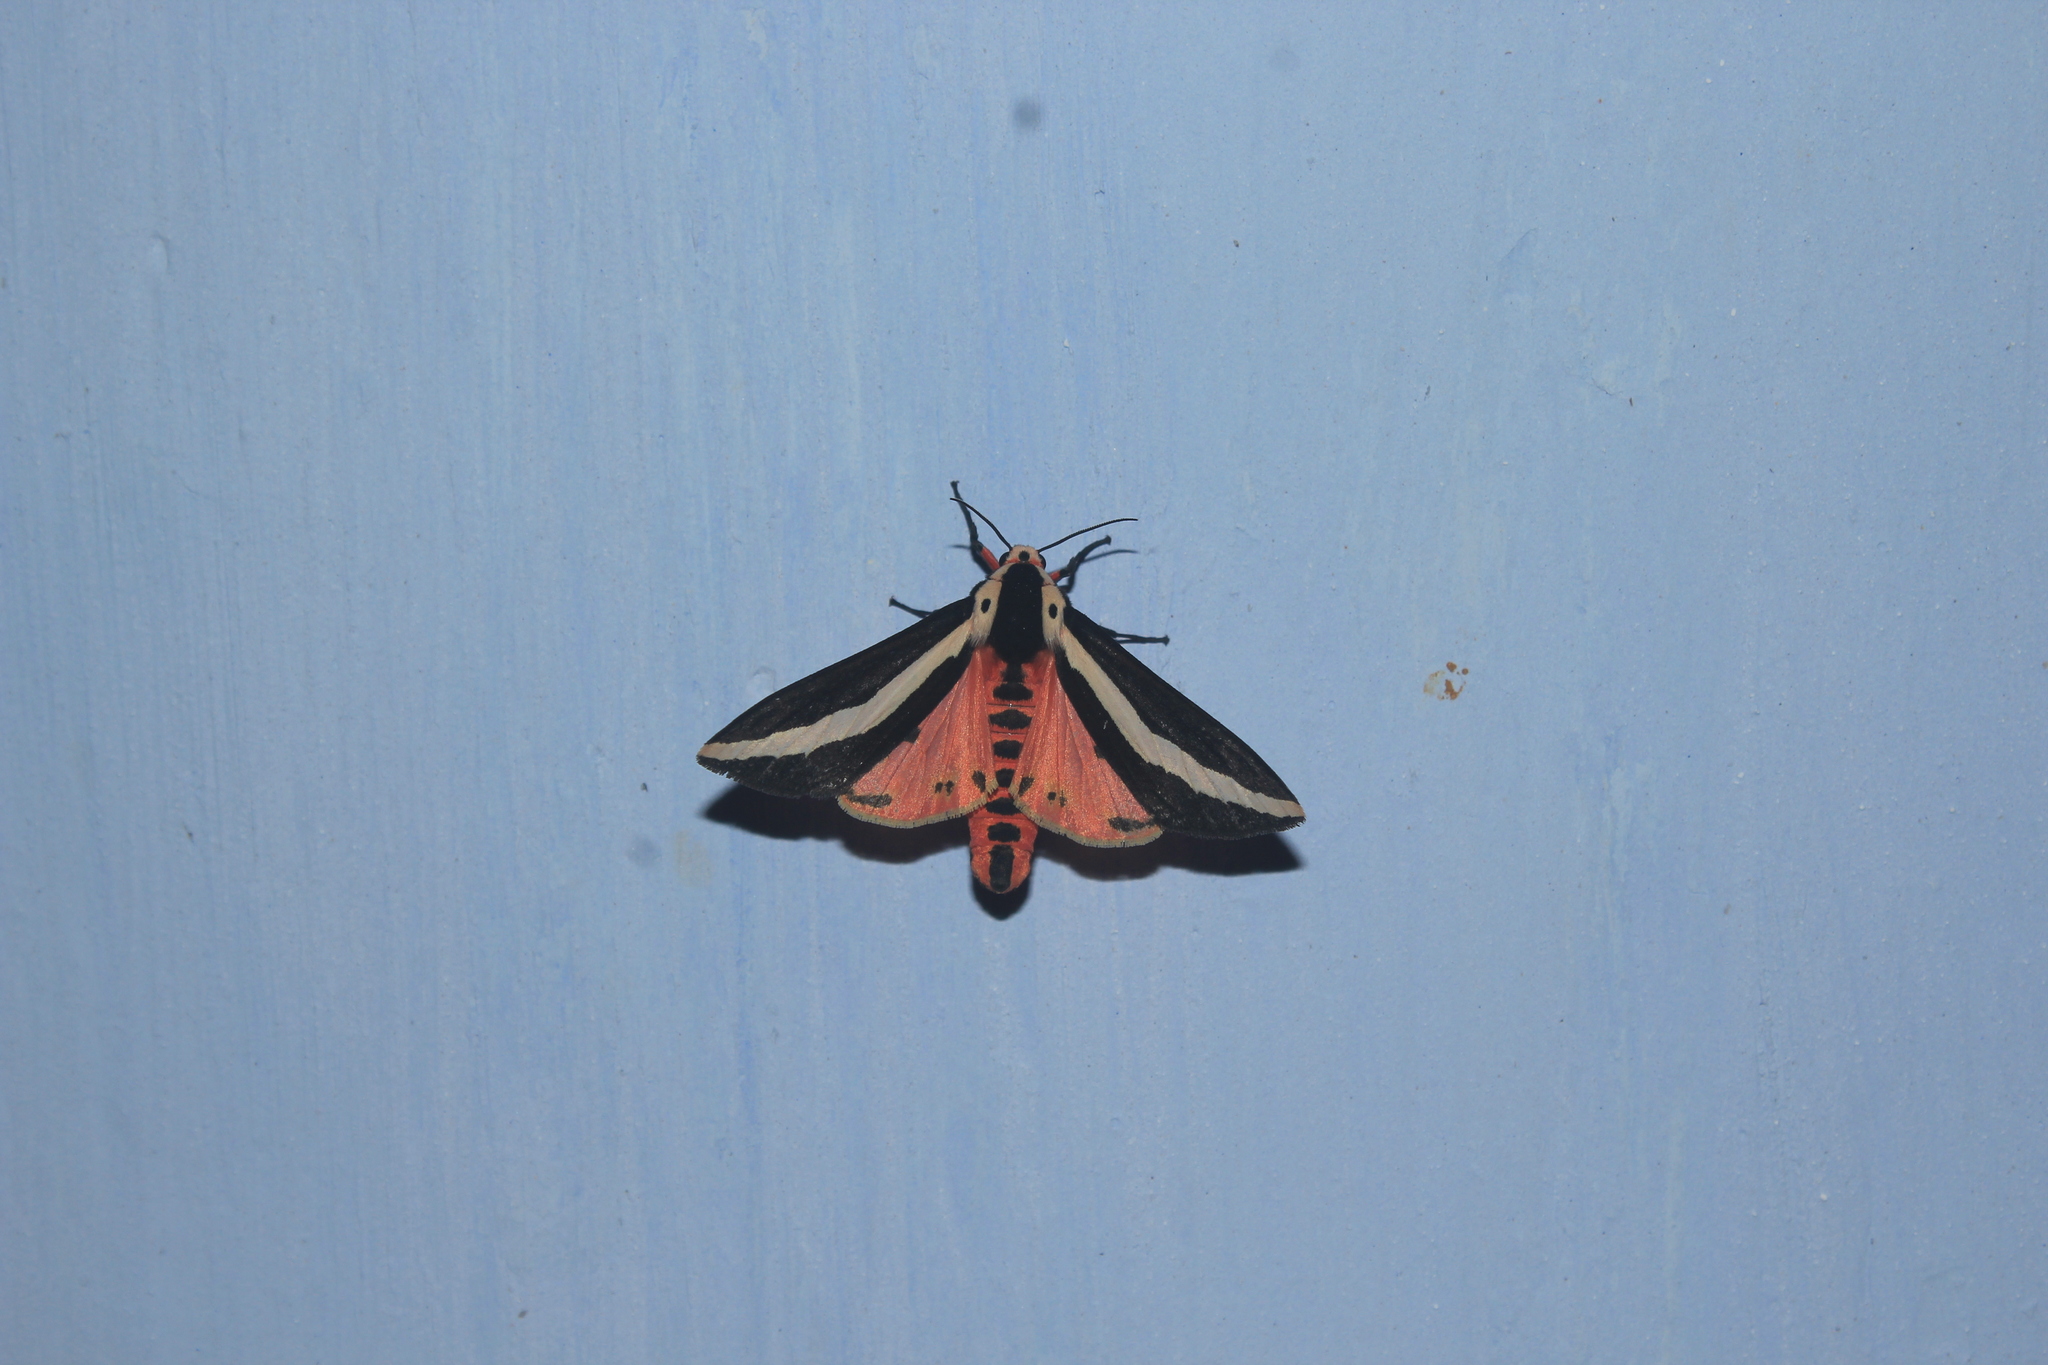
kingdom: Animalia
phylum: Arthropoda
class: Insecta
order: Lepidoptera
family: Erebidae
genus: Estigmene
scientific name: Estigmene
